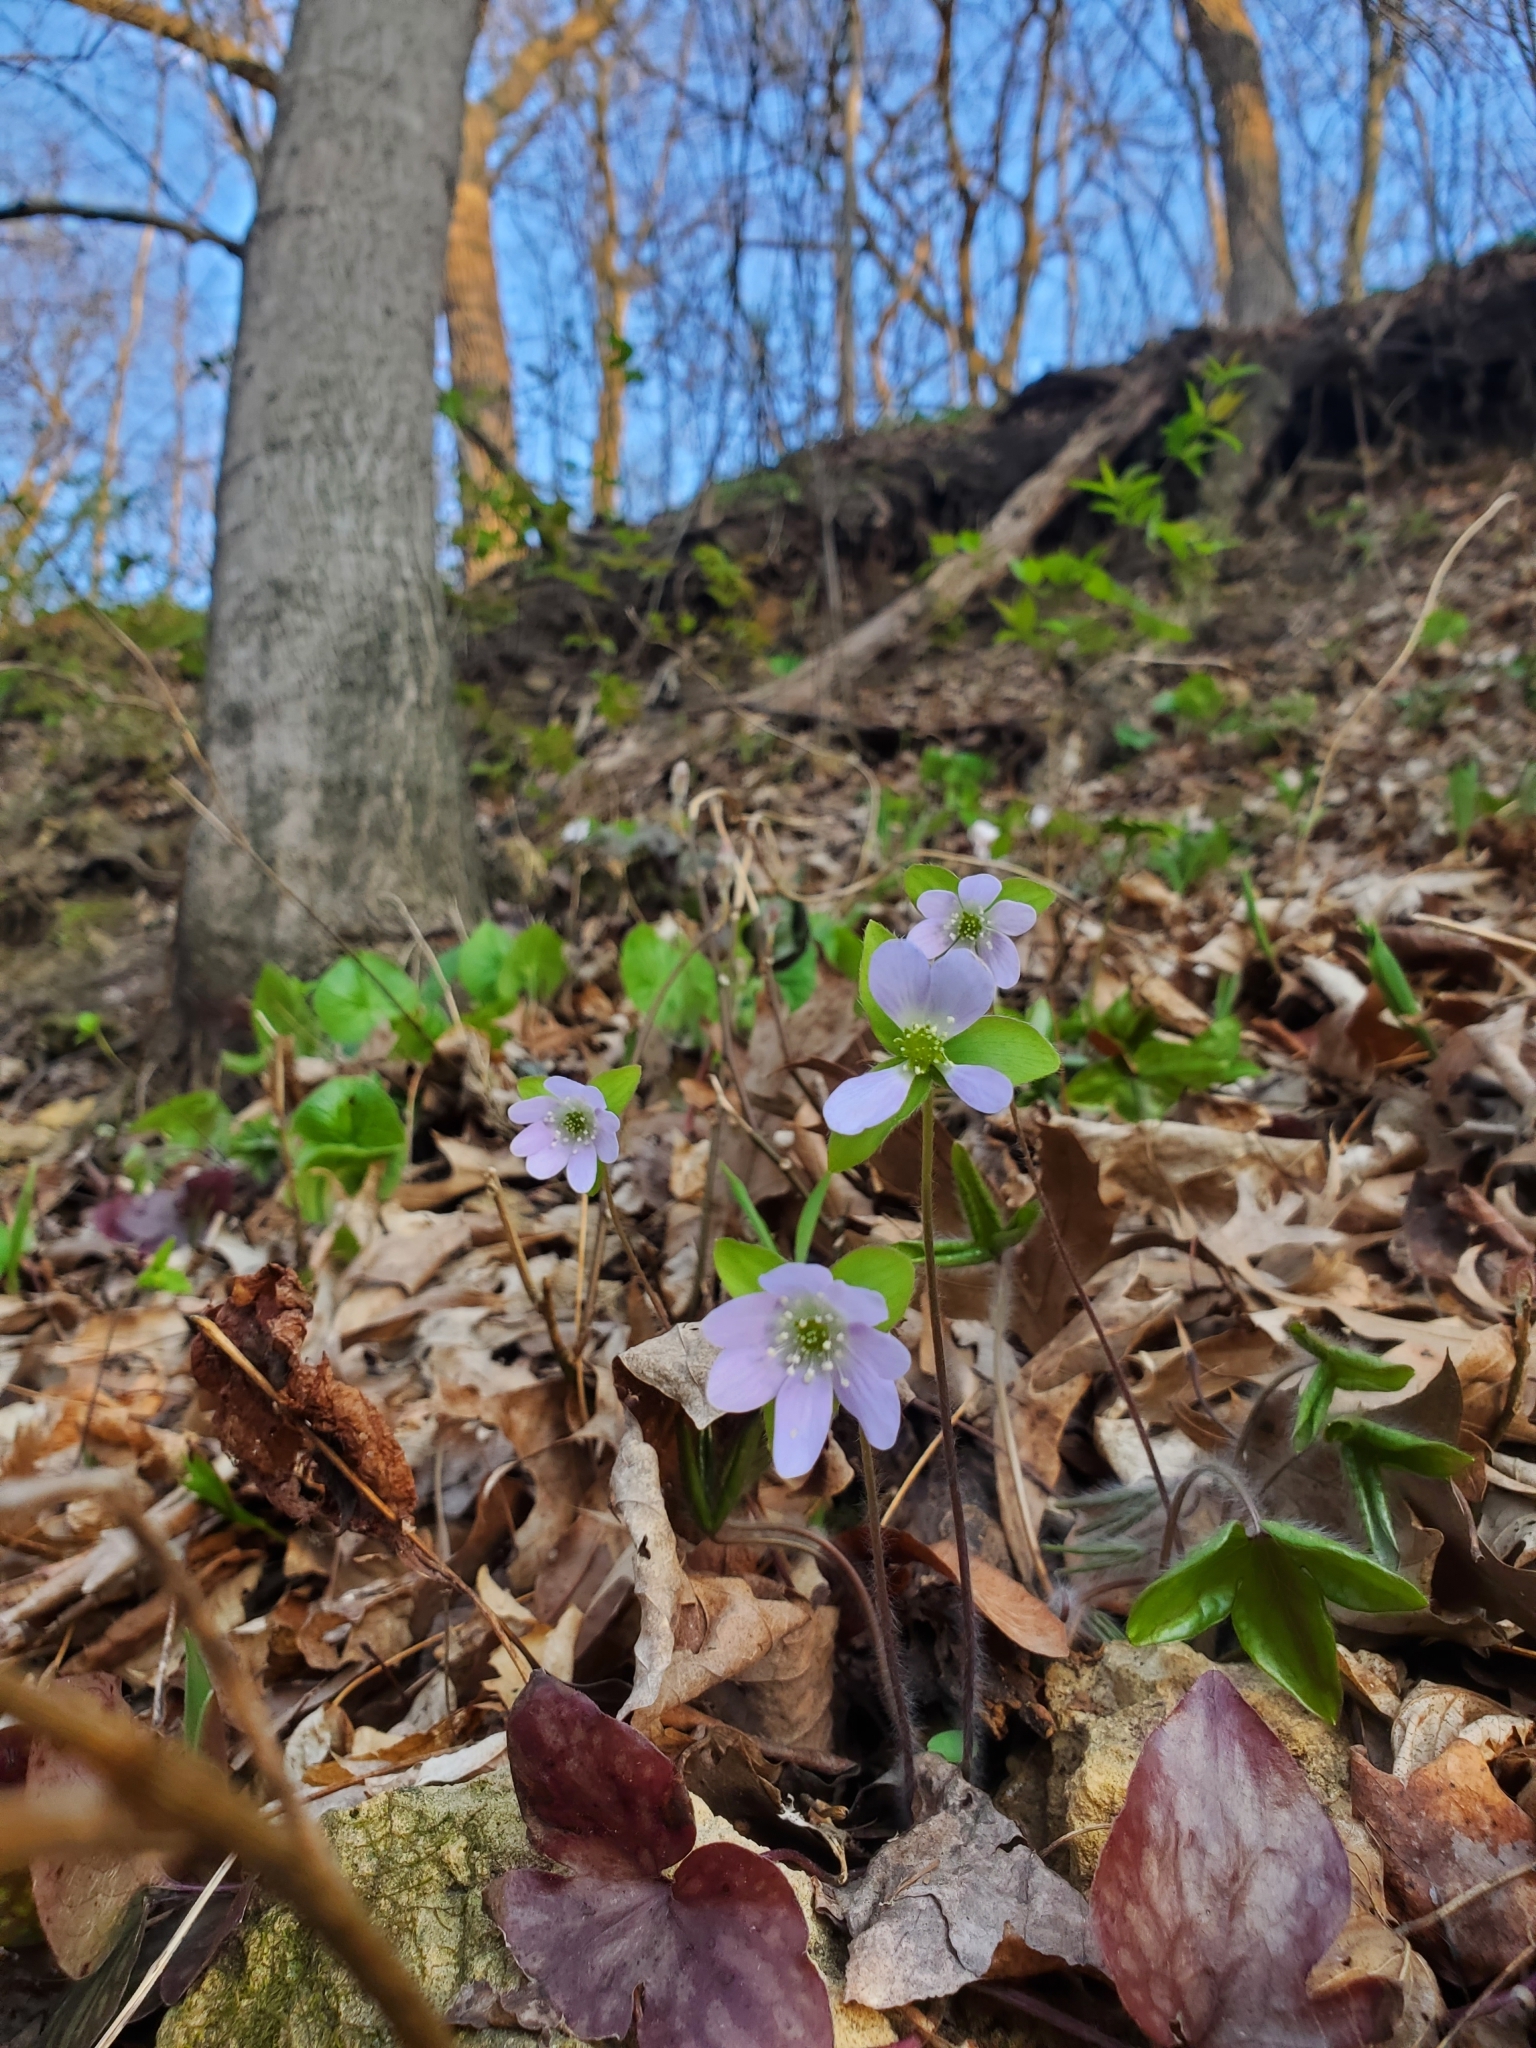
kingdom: Plantae
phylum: Tracheophyta
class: Magnoliopsida
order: Ranunculales
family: Ranunculaceae
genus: Hepatica
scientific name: Hepatica acutiloba
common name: Sharp-lobed hepatica
